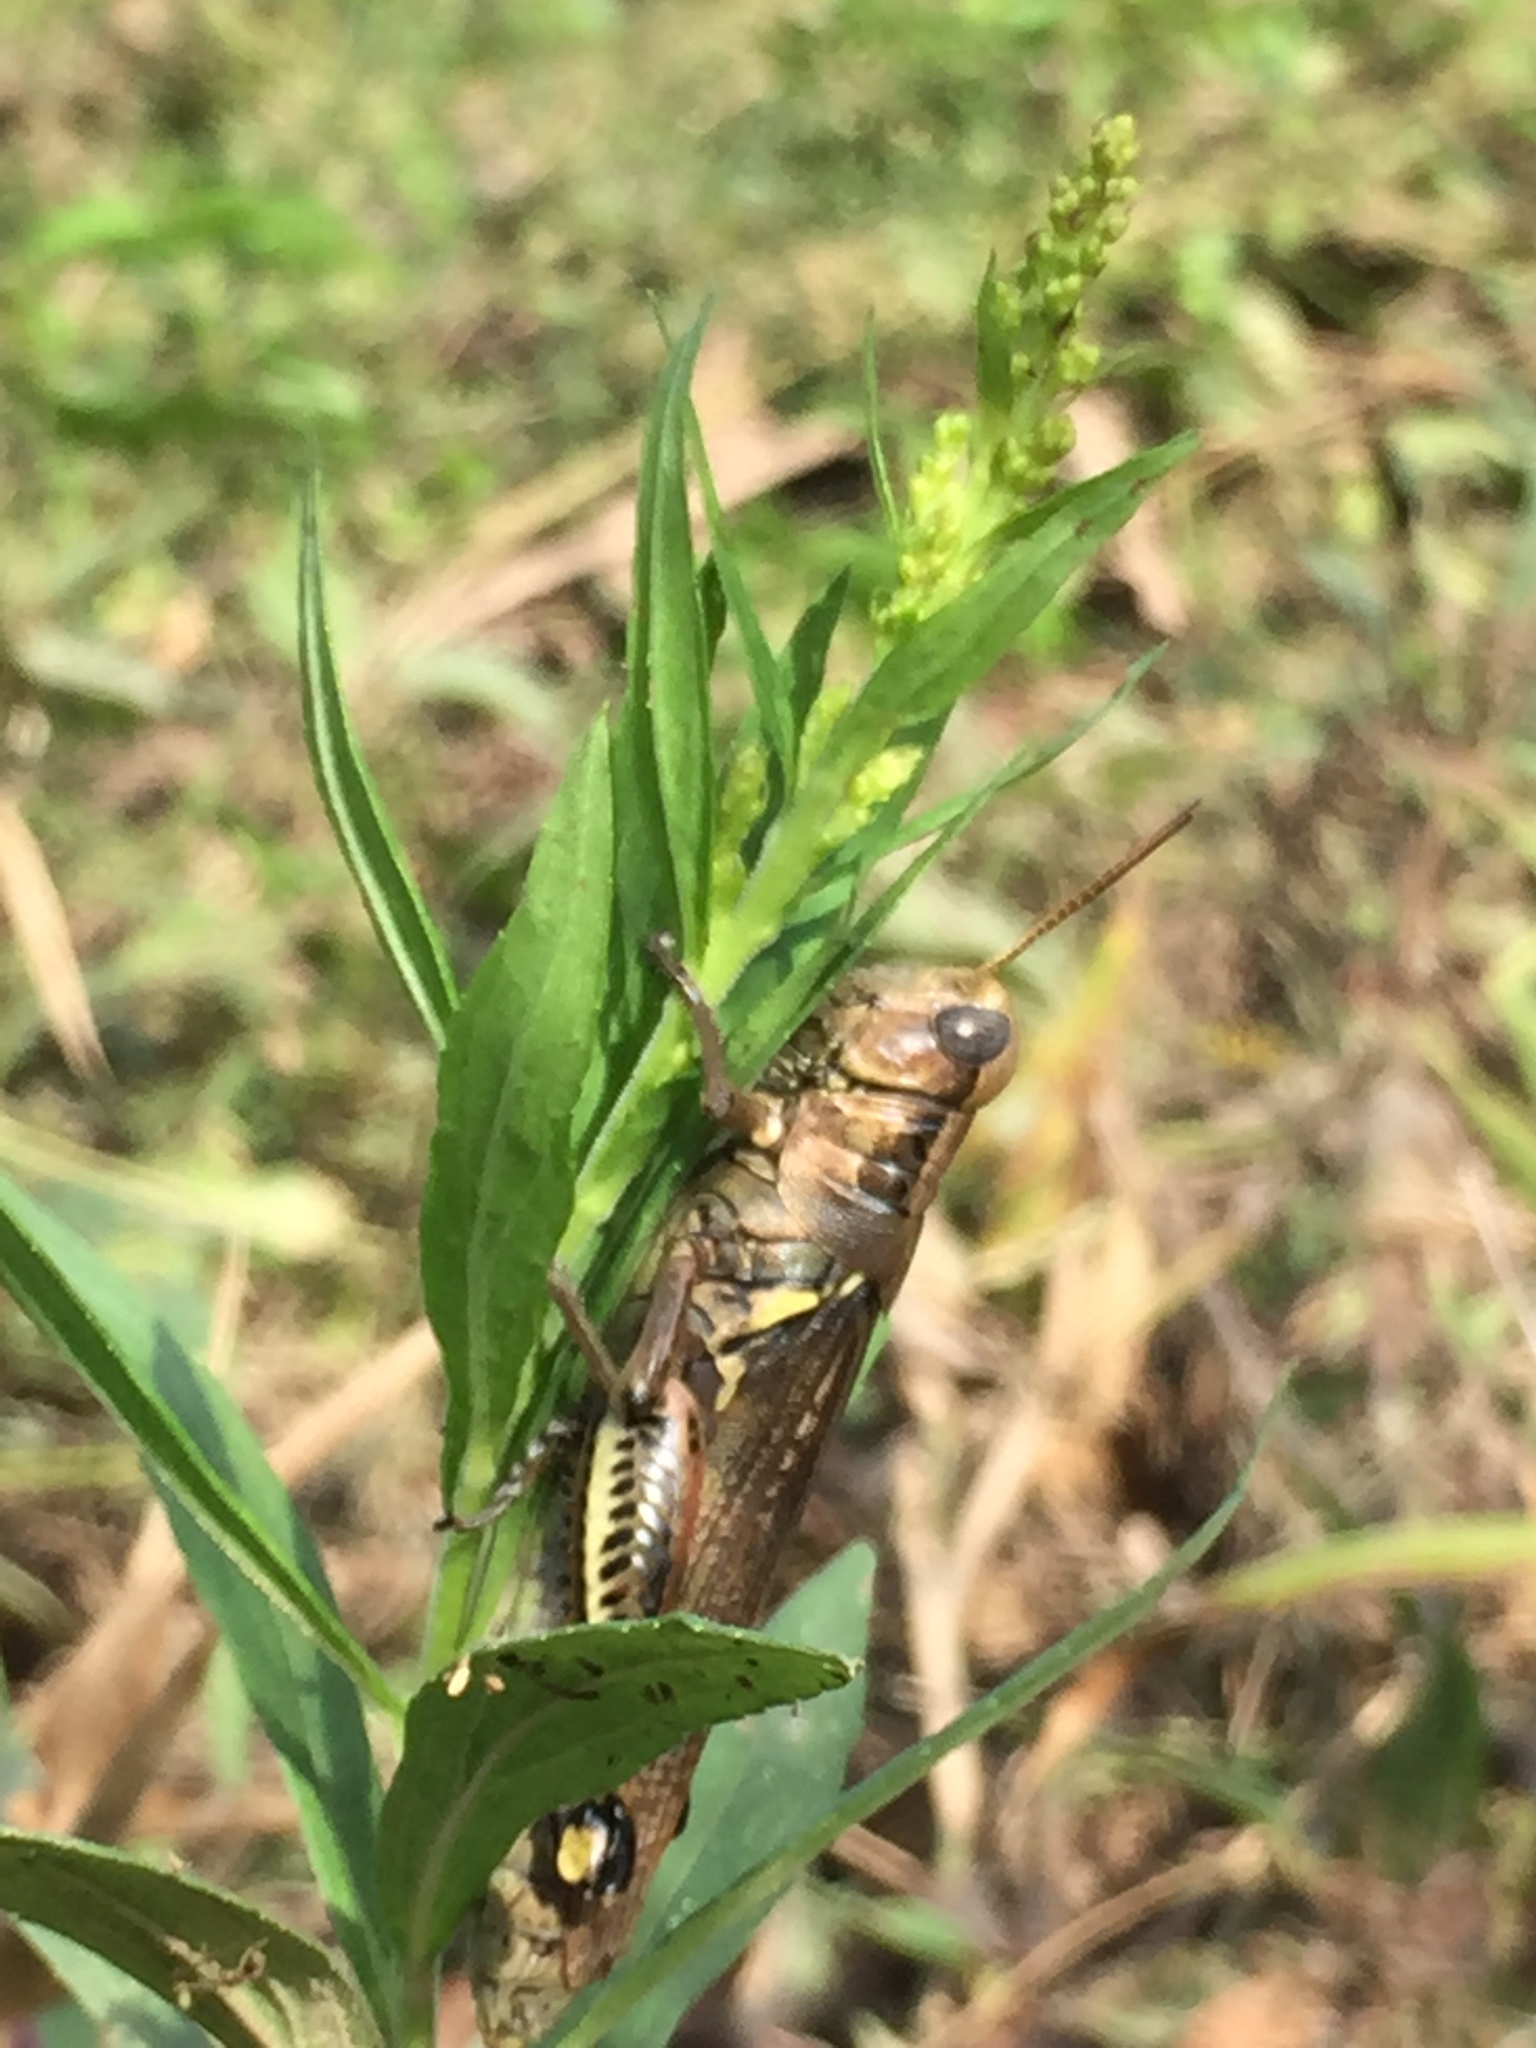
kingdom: Animalia
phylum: Arthropoda
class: Insecta
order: Orthoptera
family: Acrididae
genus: Melanoplus
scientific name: Melanoplus differentialis
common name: Differential grasshopper
